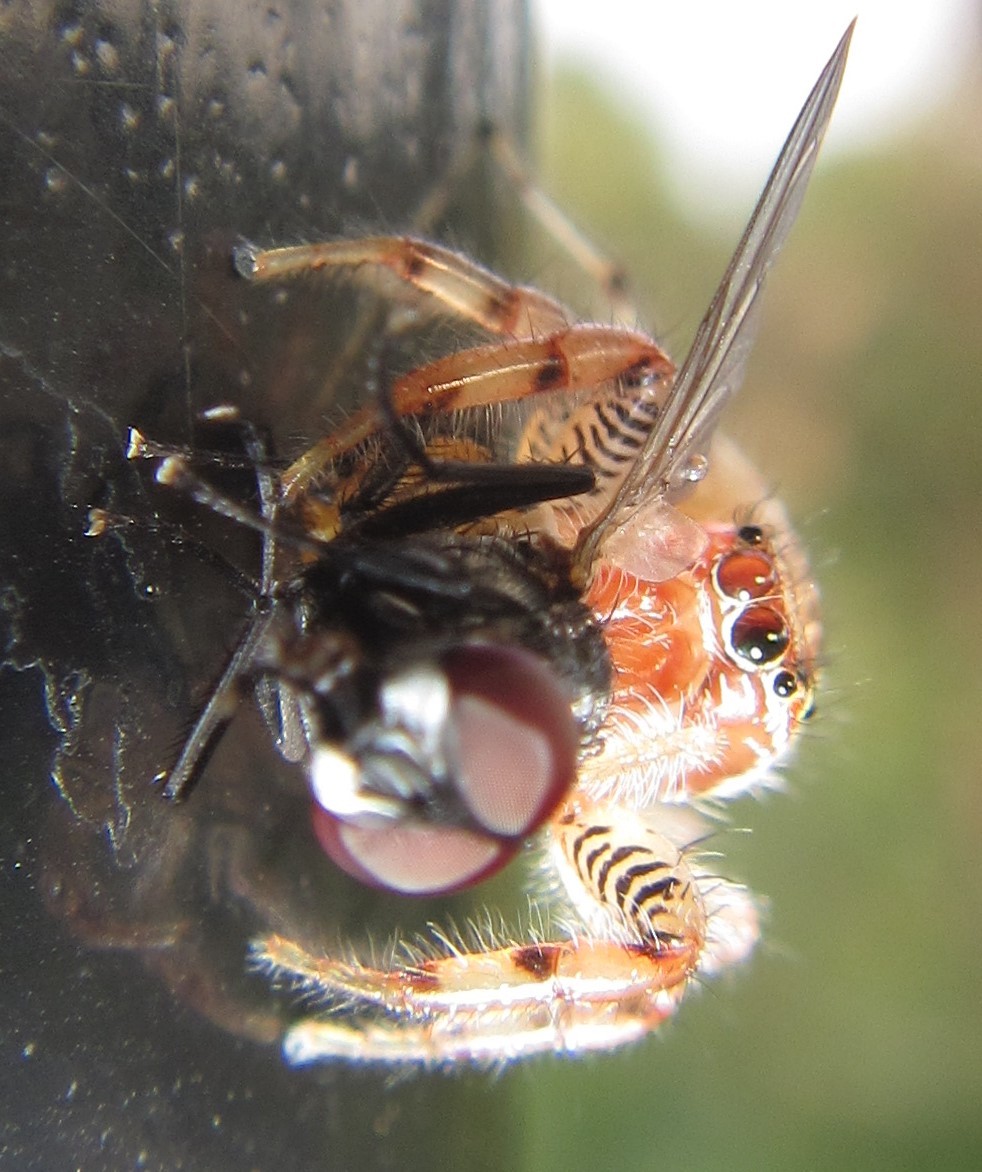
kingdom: Animalia
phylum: Arthropoda
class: Arachnida
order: Araneae
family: Salticidae
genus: Thyene
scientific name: Thyene ogdeni
